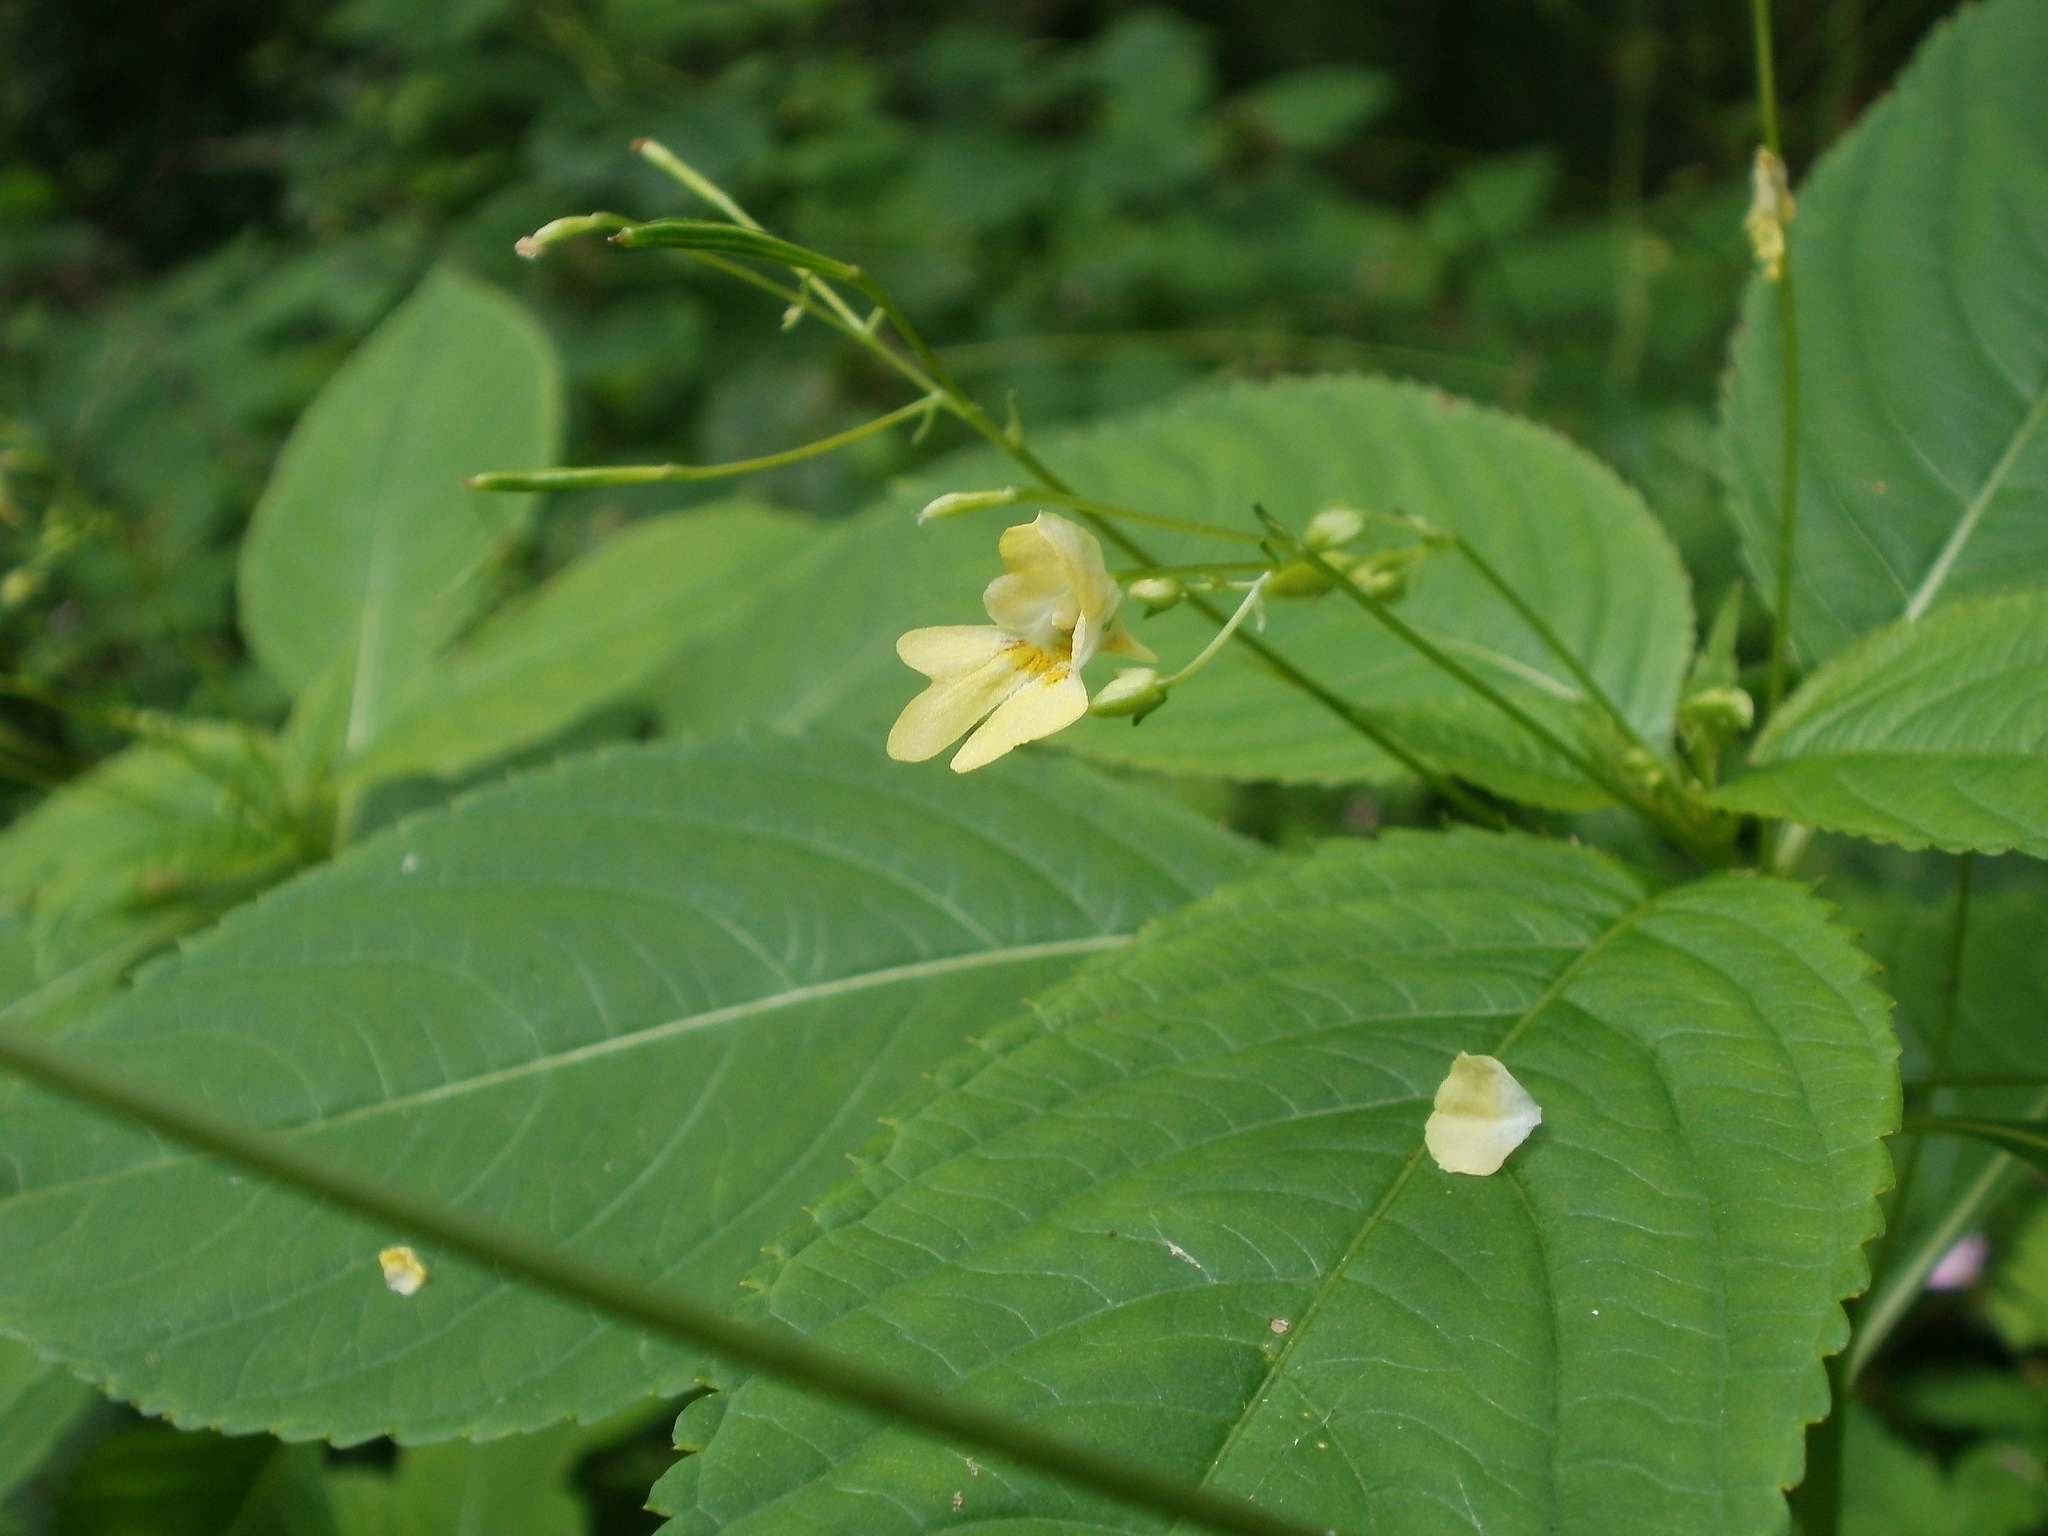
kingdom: Plantae
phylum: Tracheophyta
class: Magnoliopsida
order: Ericales
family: Balsaminaceae
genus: Impatiens
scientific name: Impatiens parviflora
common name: Small balsam
